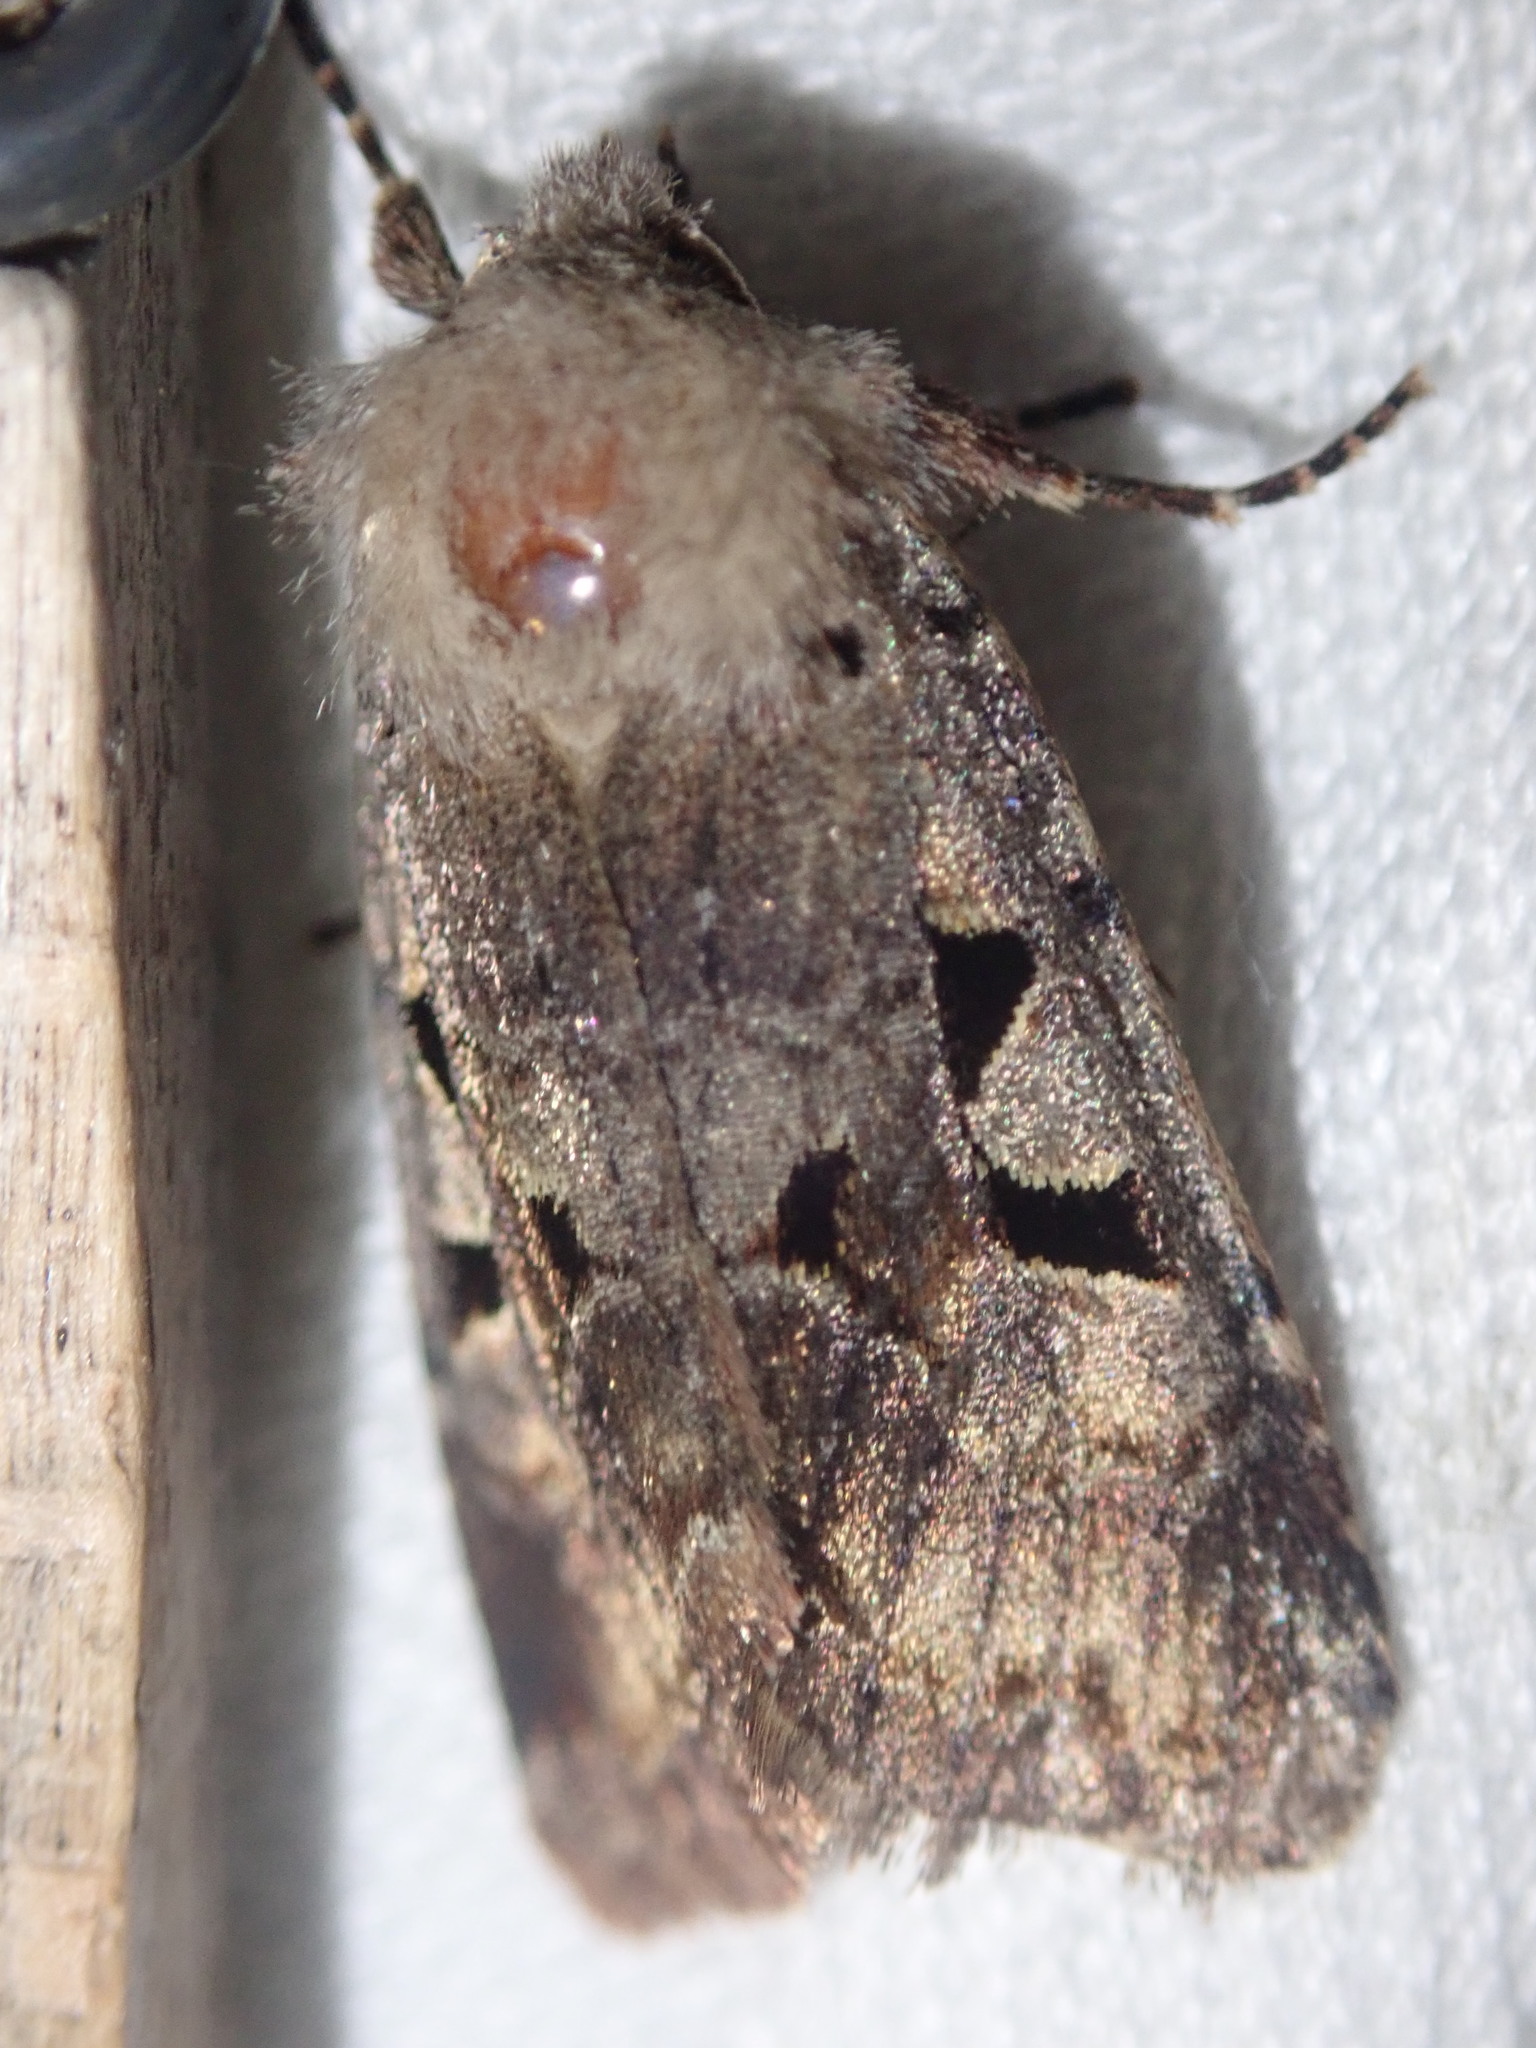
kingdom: Animalia
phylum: Arthropoda
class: Insecta
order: Lepidoptera
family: Noctuidae
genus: Orthosia
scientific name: Orthosia gothica
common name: Hebrew character
